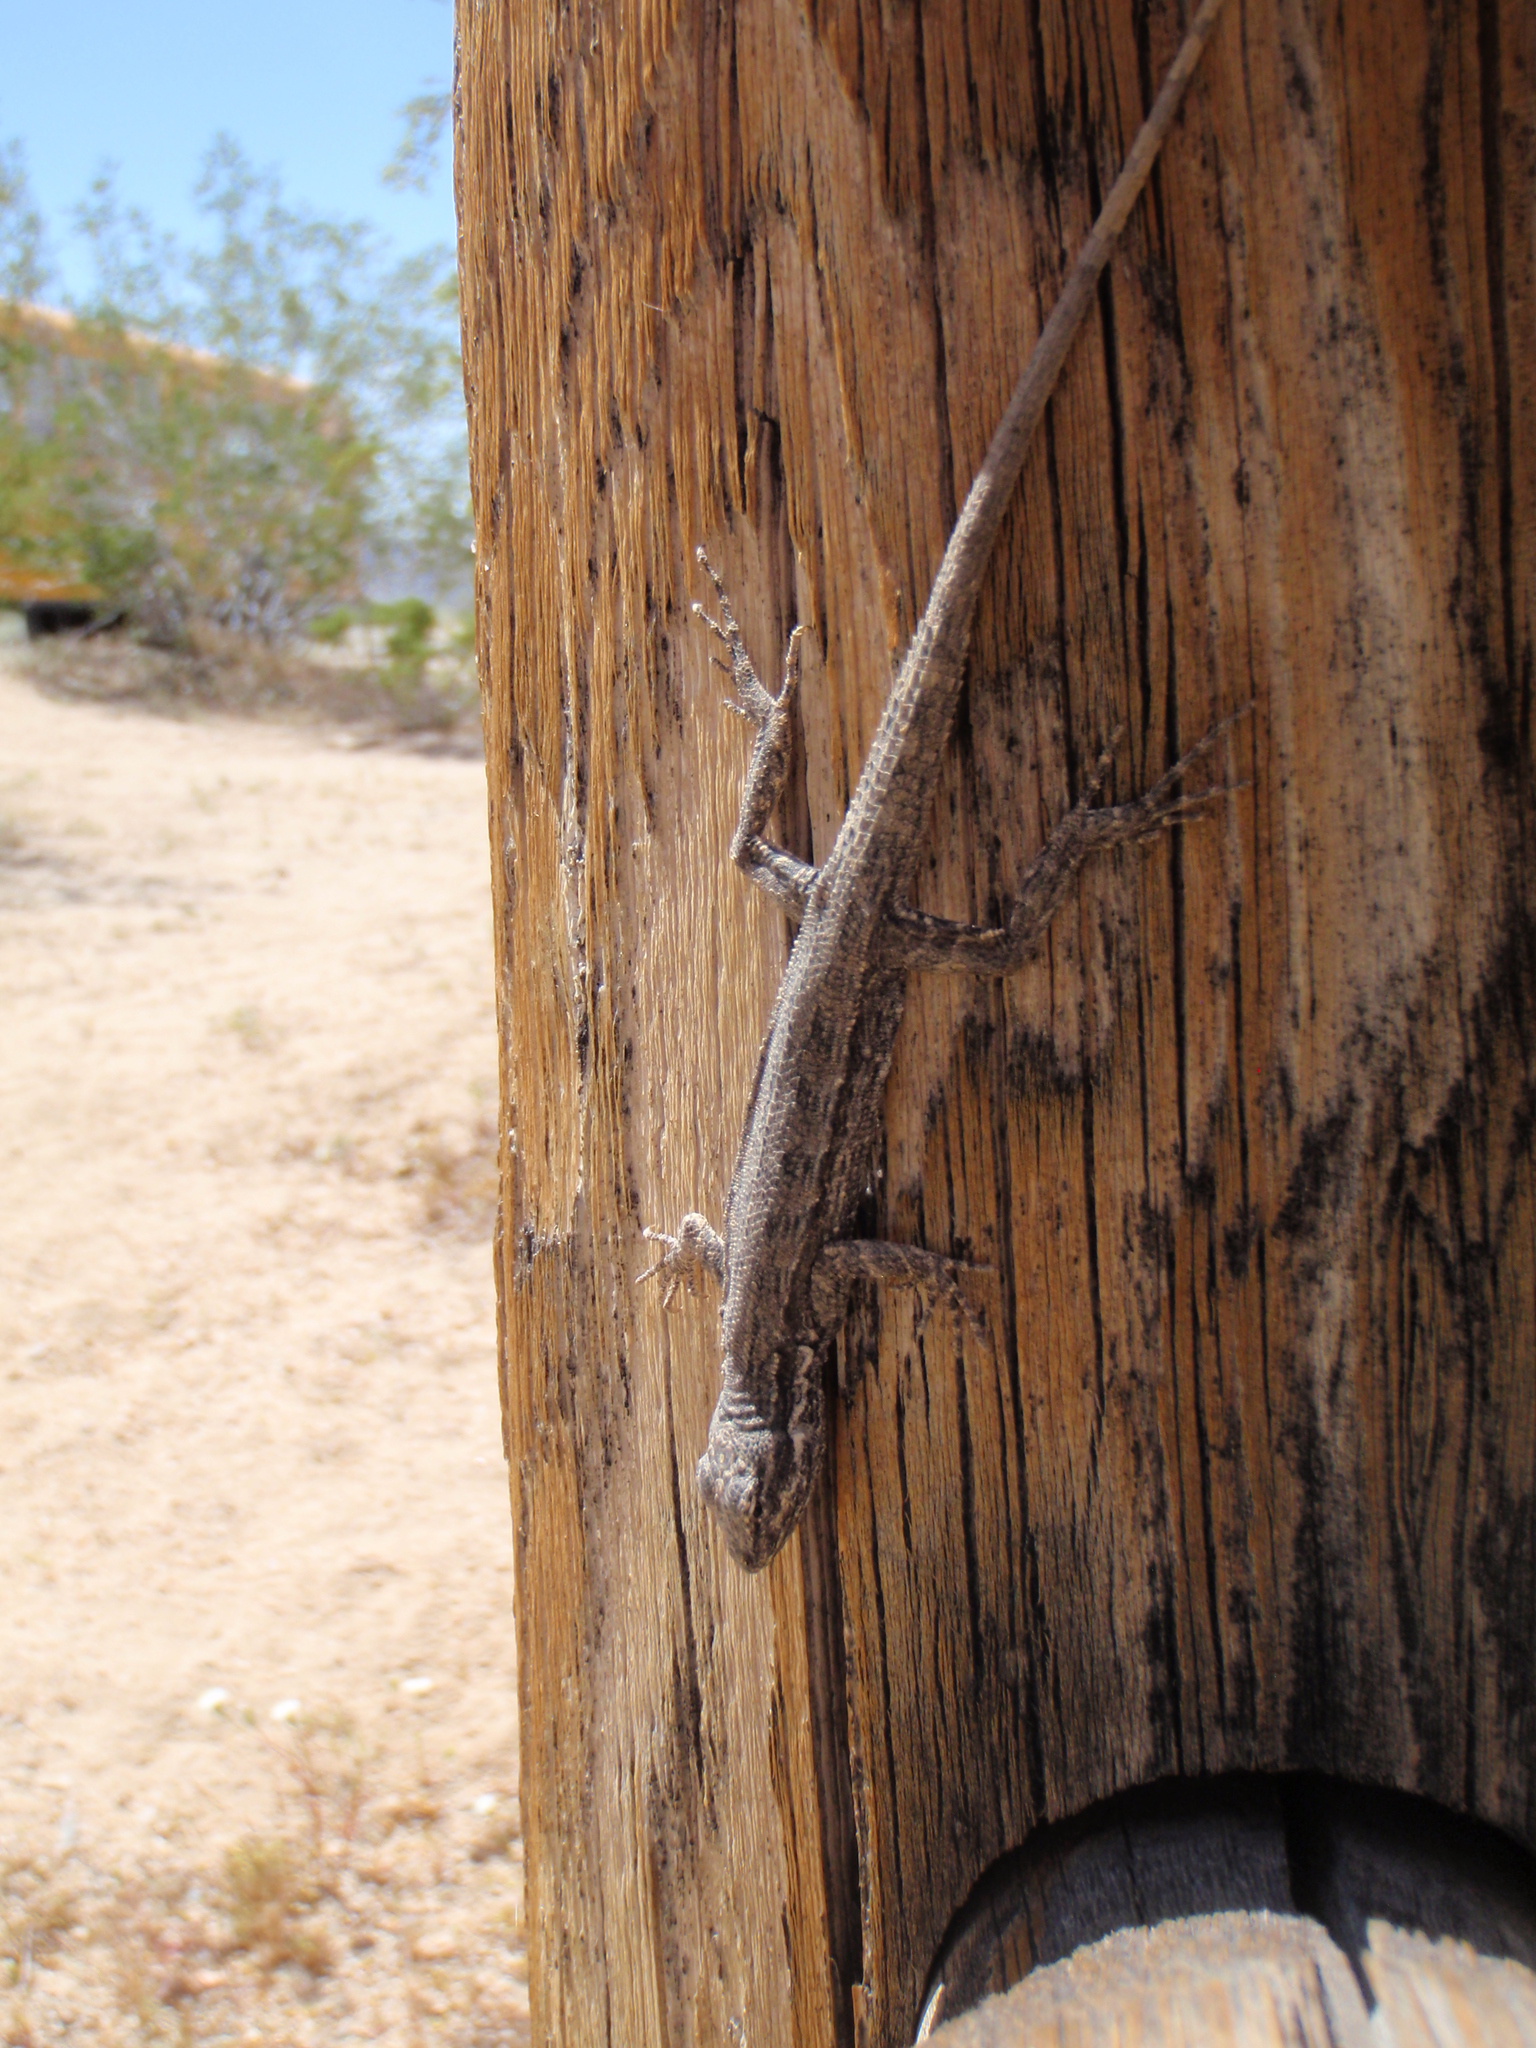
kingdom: Animalia
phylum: Chordata
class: Squamata
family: Phrynosomatidae
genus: Urosaurus
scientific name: Urosaurus graciosus
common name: Long-tailed brush lizard
